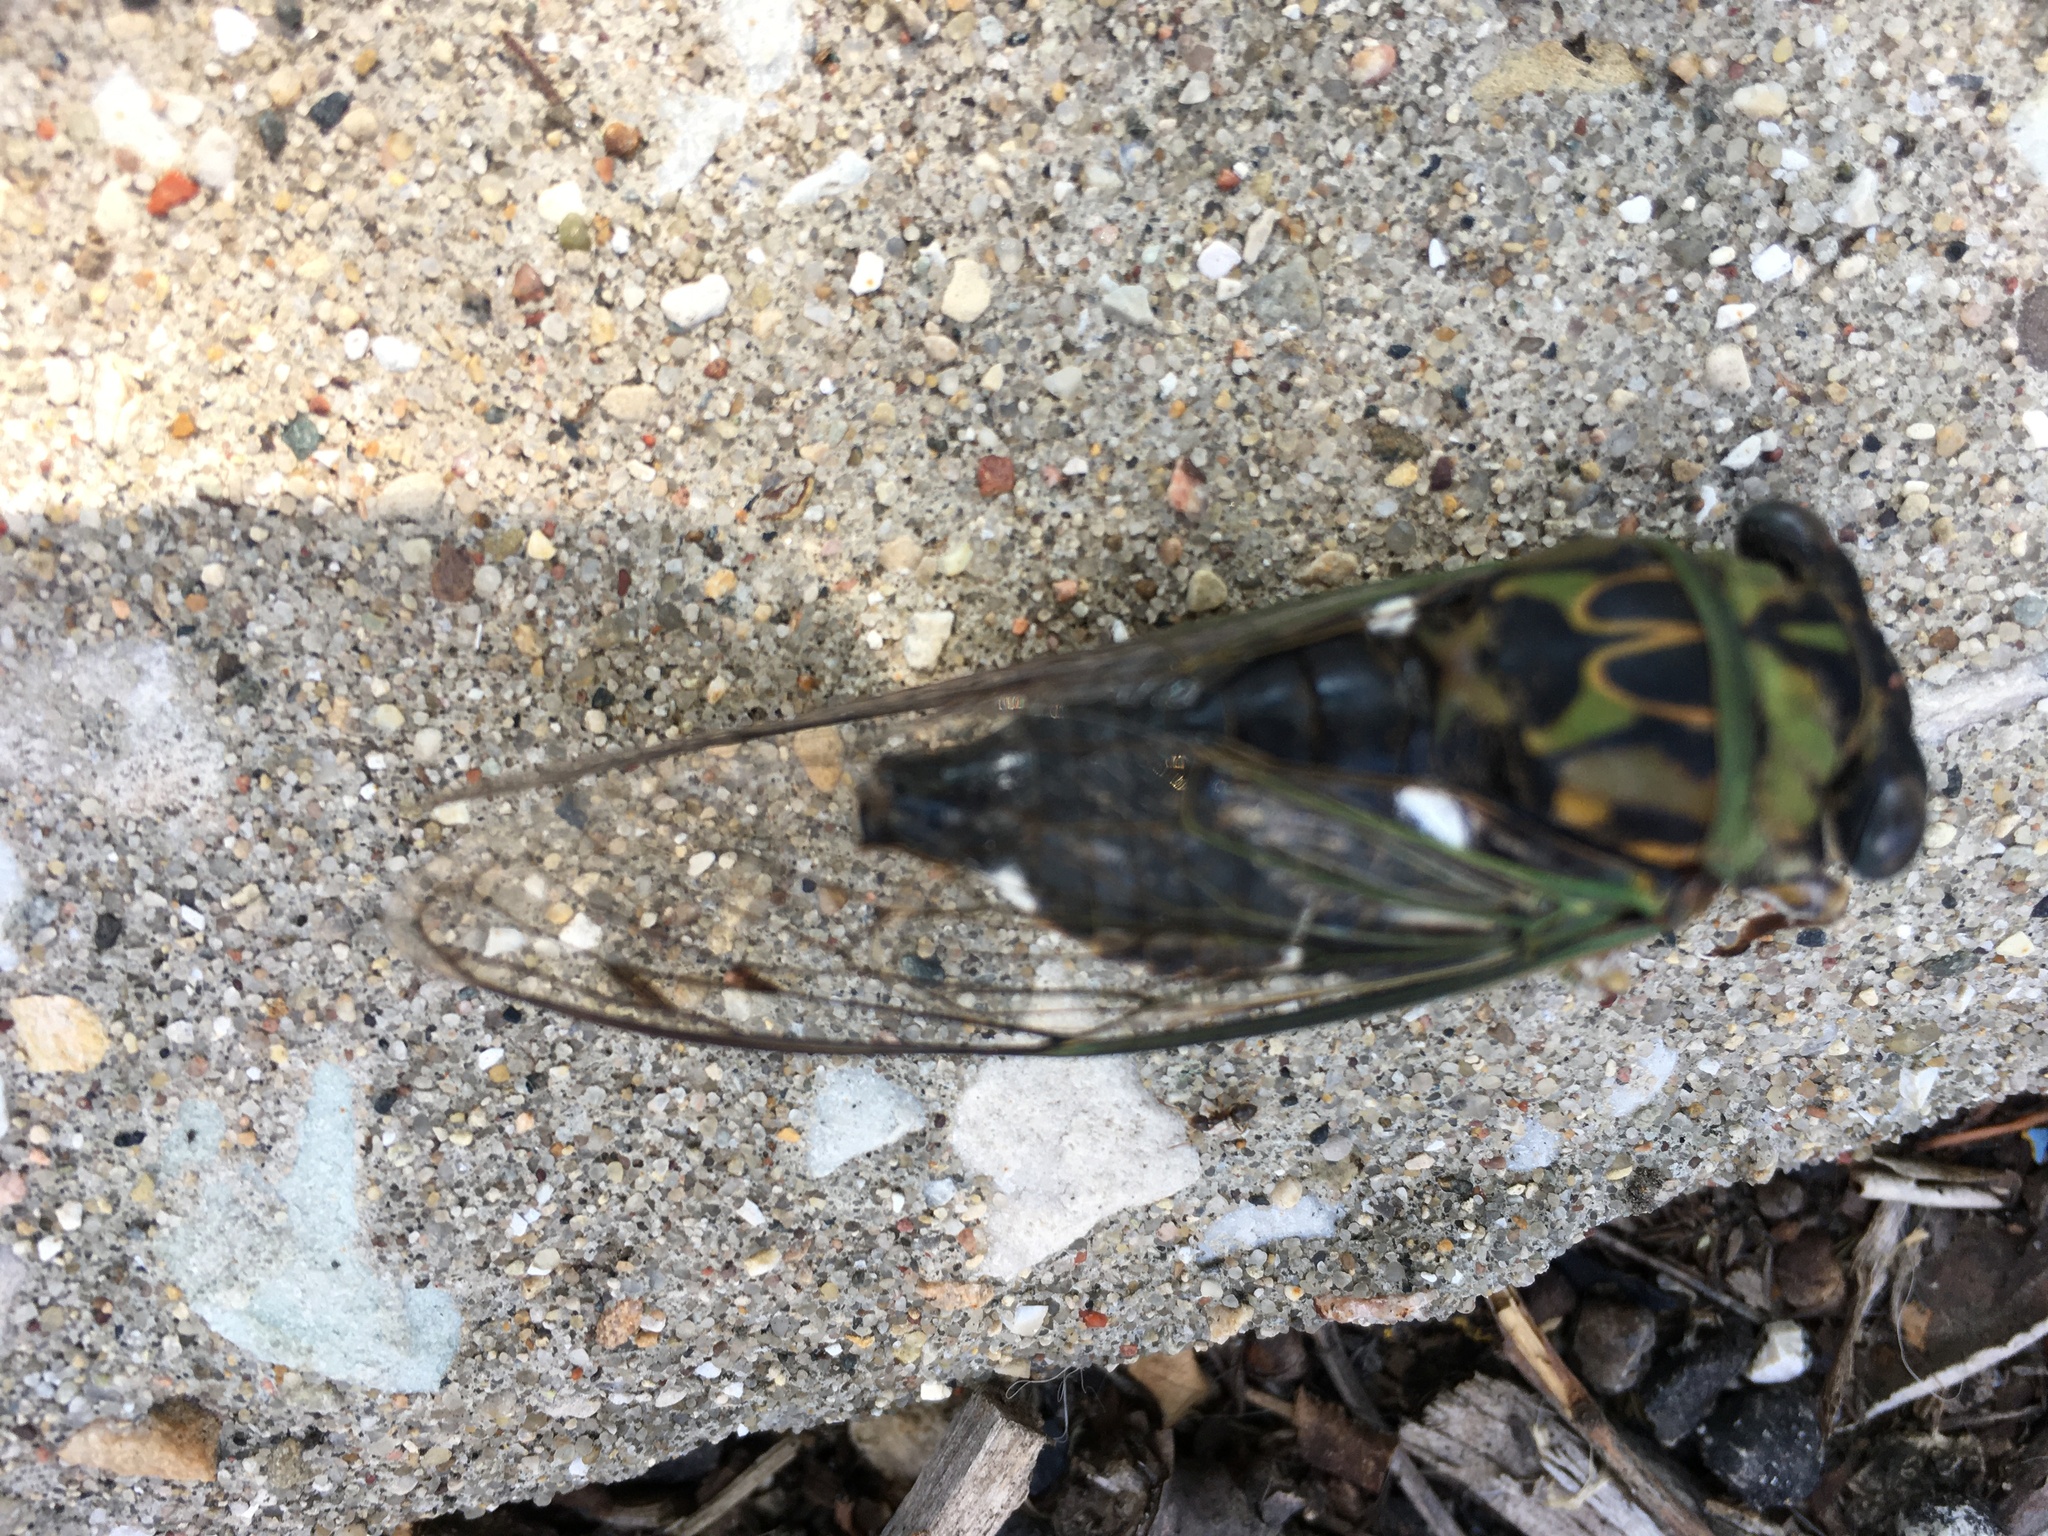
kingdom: Animalia
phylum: Arthropoda
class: Insecta
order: Hemiptera
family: Cicadidae
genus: Neotibicen
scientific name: Neotibicen pruinosus
